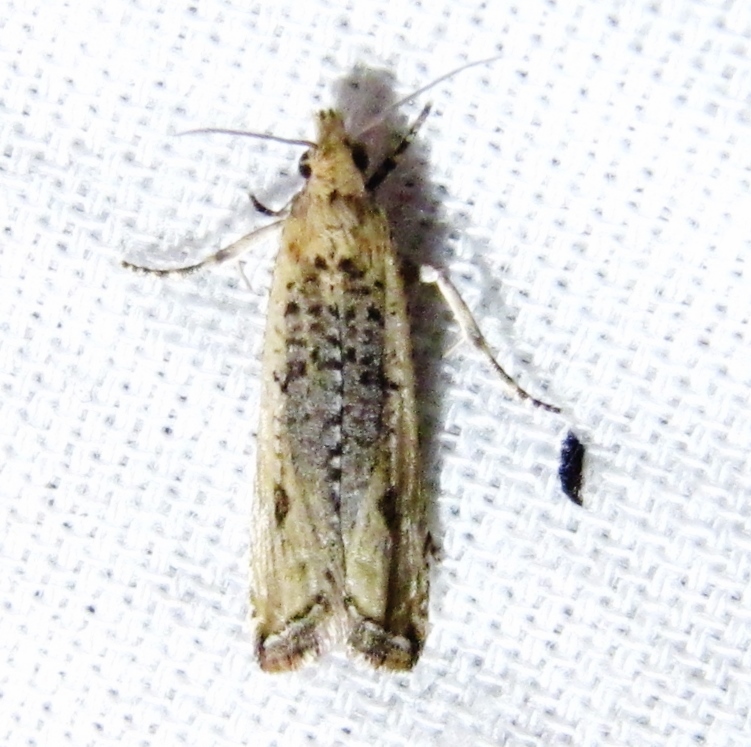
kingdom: Animalia
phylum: Arthropoda
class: Insecta
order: Lepidoptera
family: Tortricidae
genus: Bactra
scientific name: Bactra verutana
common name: Javelin moth
